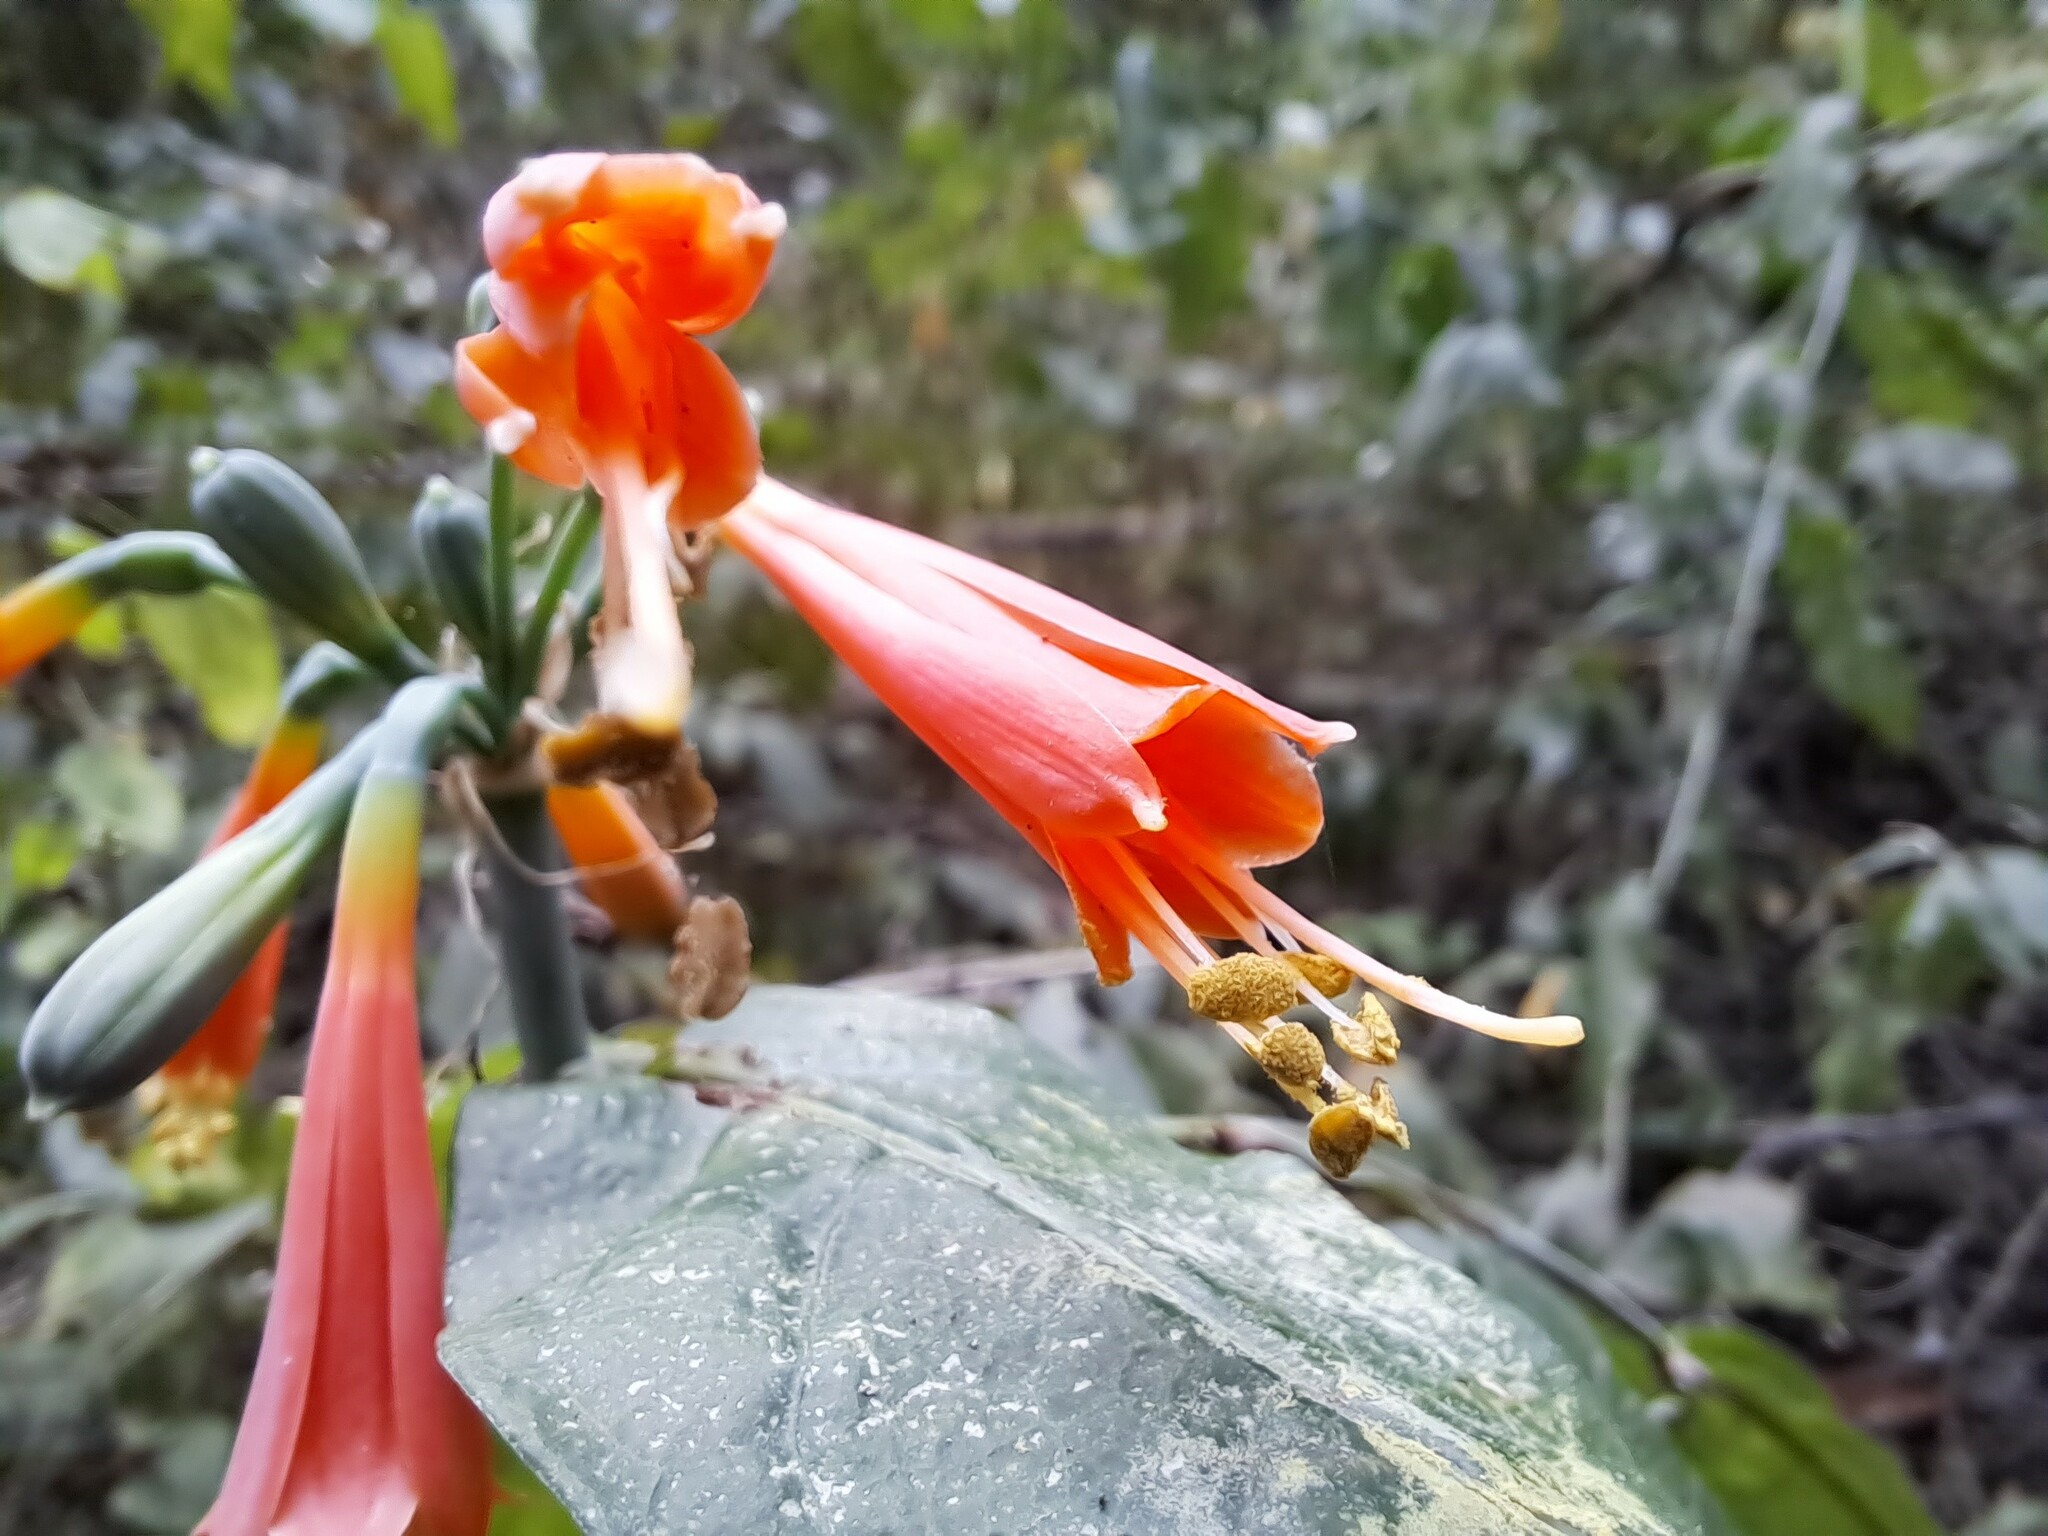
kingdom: Plantae
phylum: Tracheophyta
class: Liliopsida
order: Asparagales
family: Amaryllidaceae
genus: Eucrosia
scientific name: Eucrosia stricklandii
